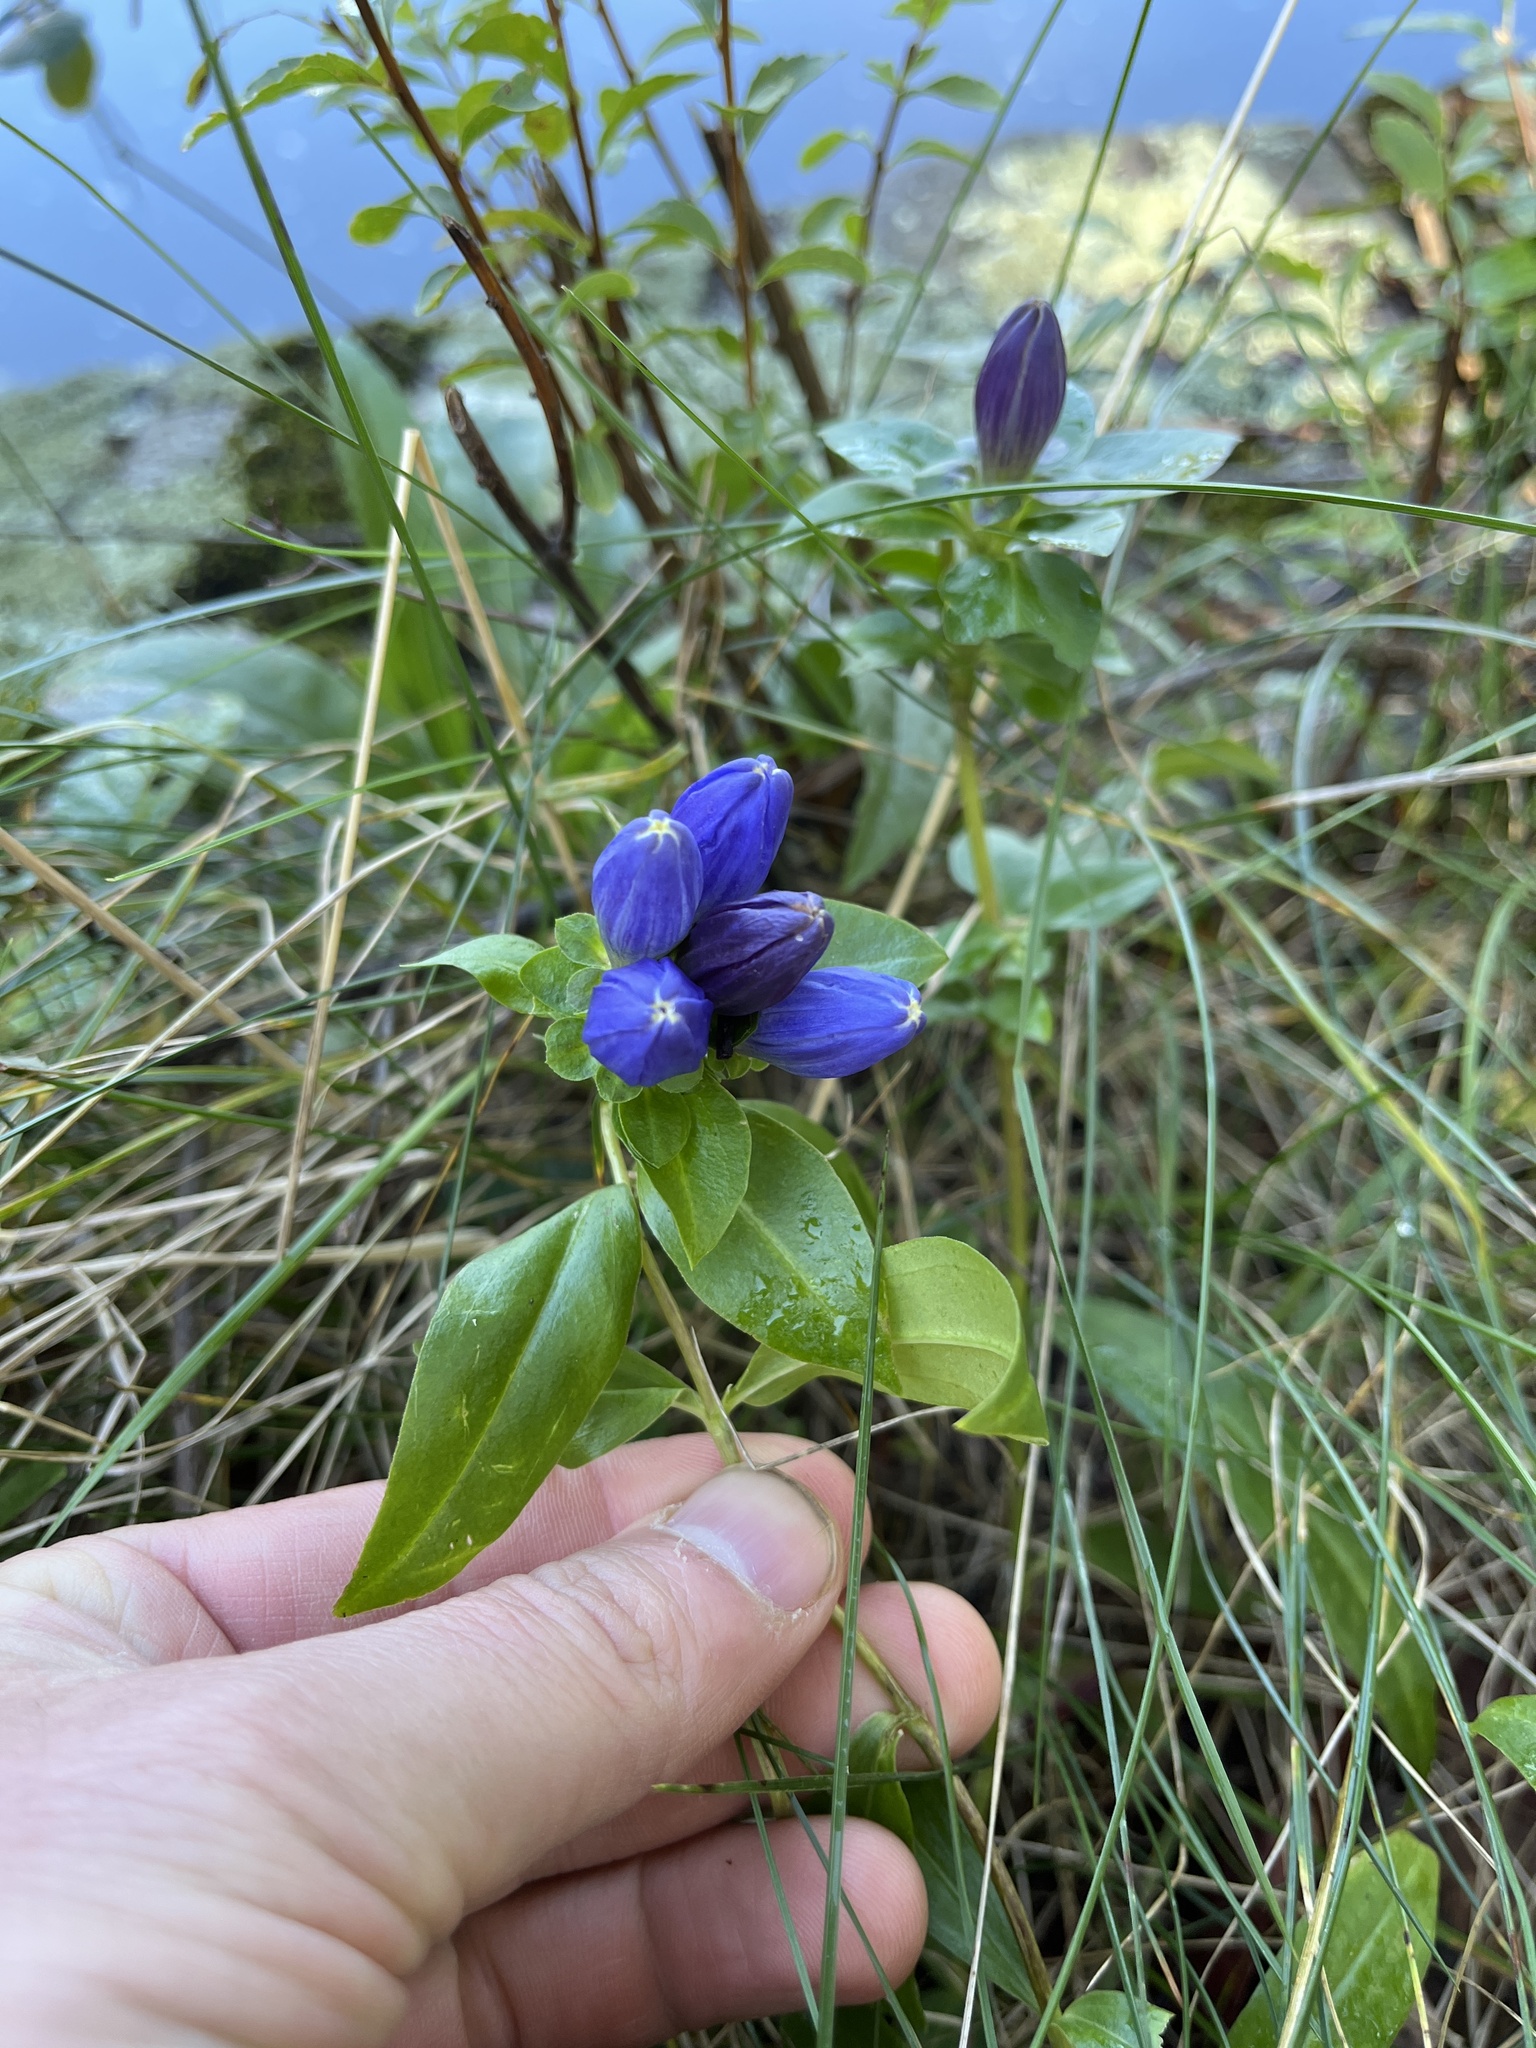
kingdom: Plantae
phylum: Tracheophyta
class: Magnoliopsida
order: Gentianales
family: Gentianaceae
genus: Gentiana
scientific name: Gentiana clausa
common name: Blind gentian
